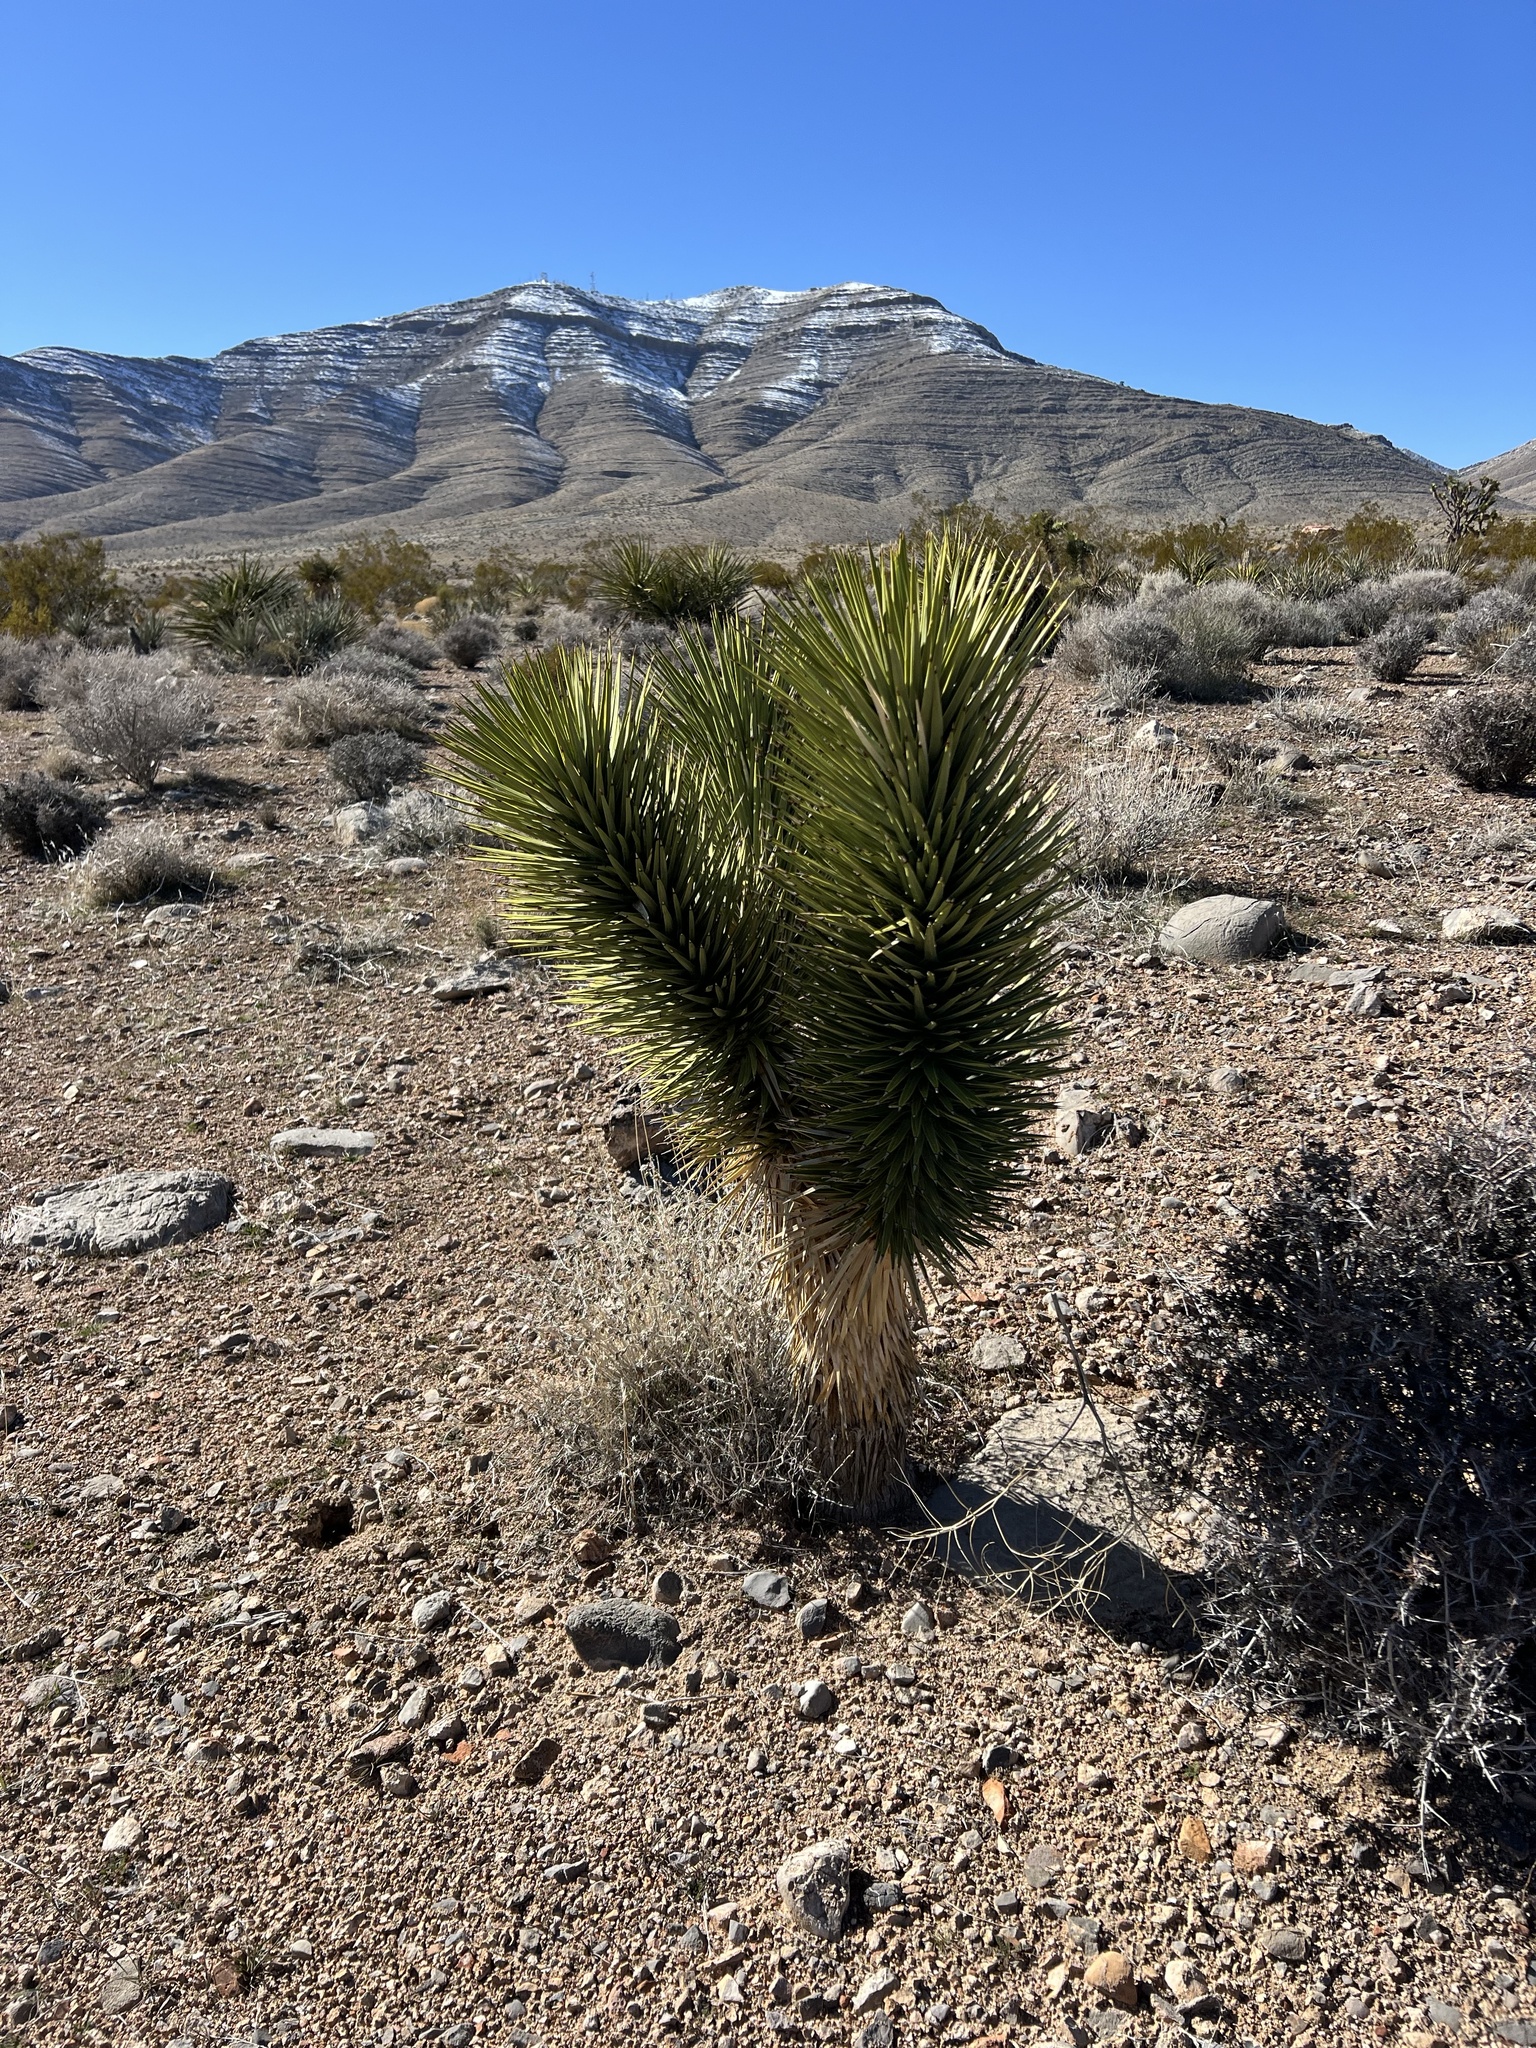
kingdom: Plantae
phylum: Tracheophyta
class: Liliopsida
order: Asparagales
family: Asparagaceae
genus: Yucca
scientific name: Yucca brevifolia
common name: Joshua tree
